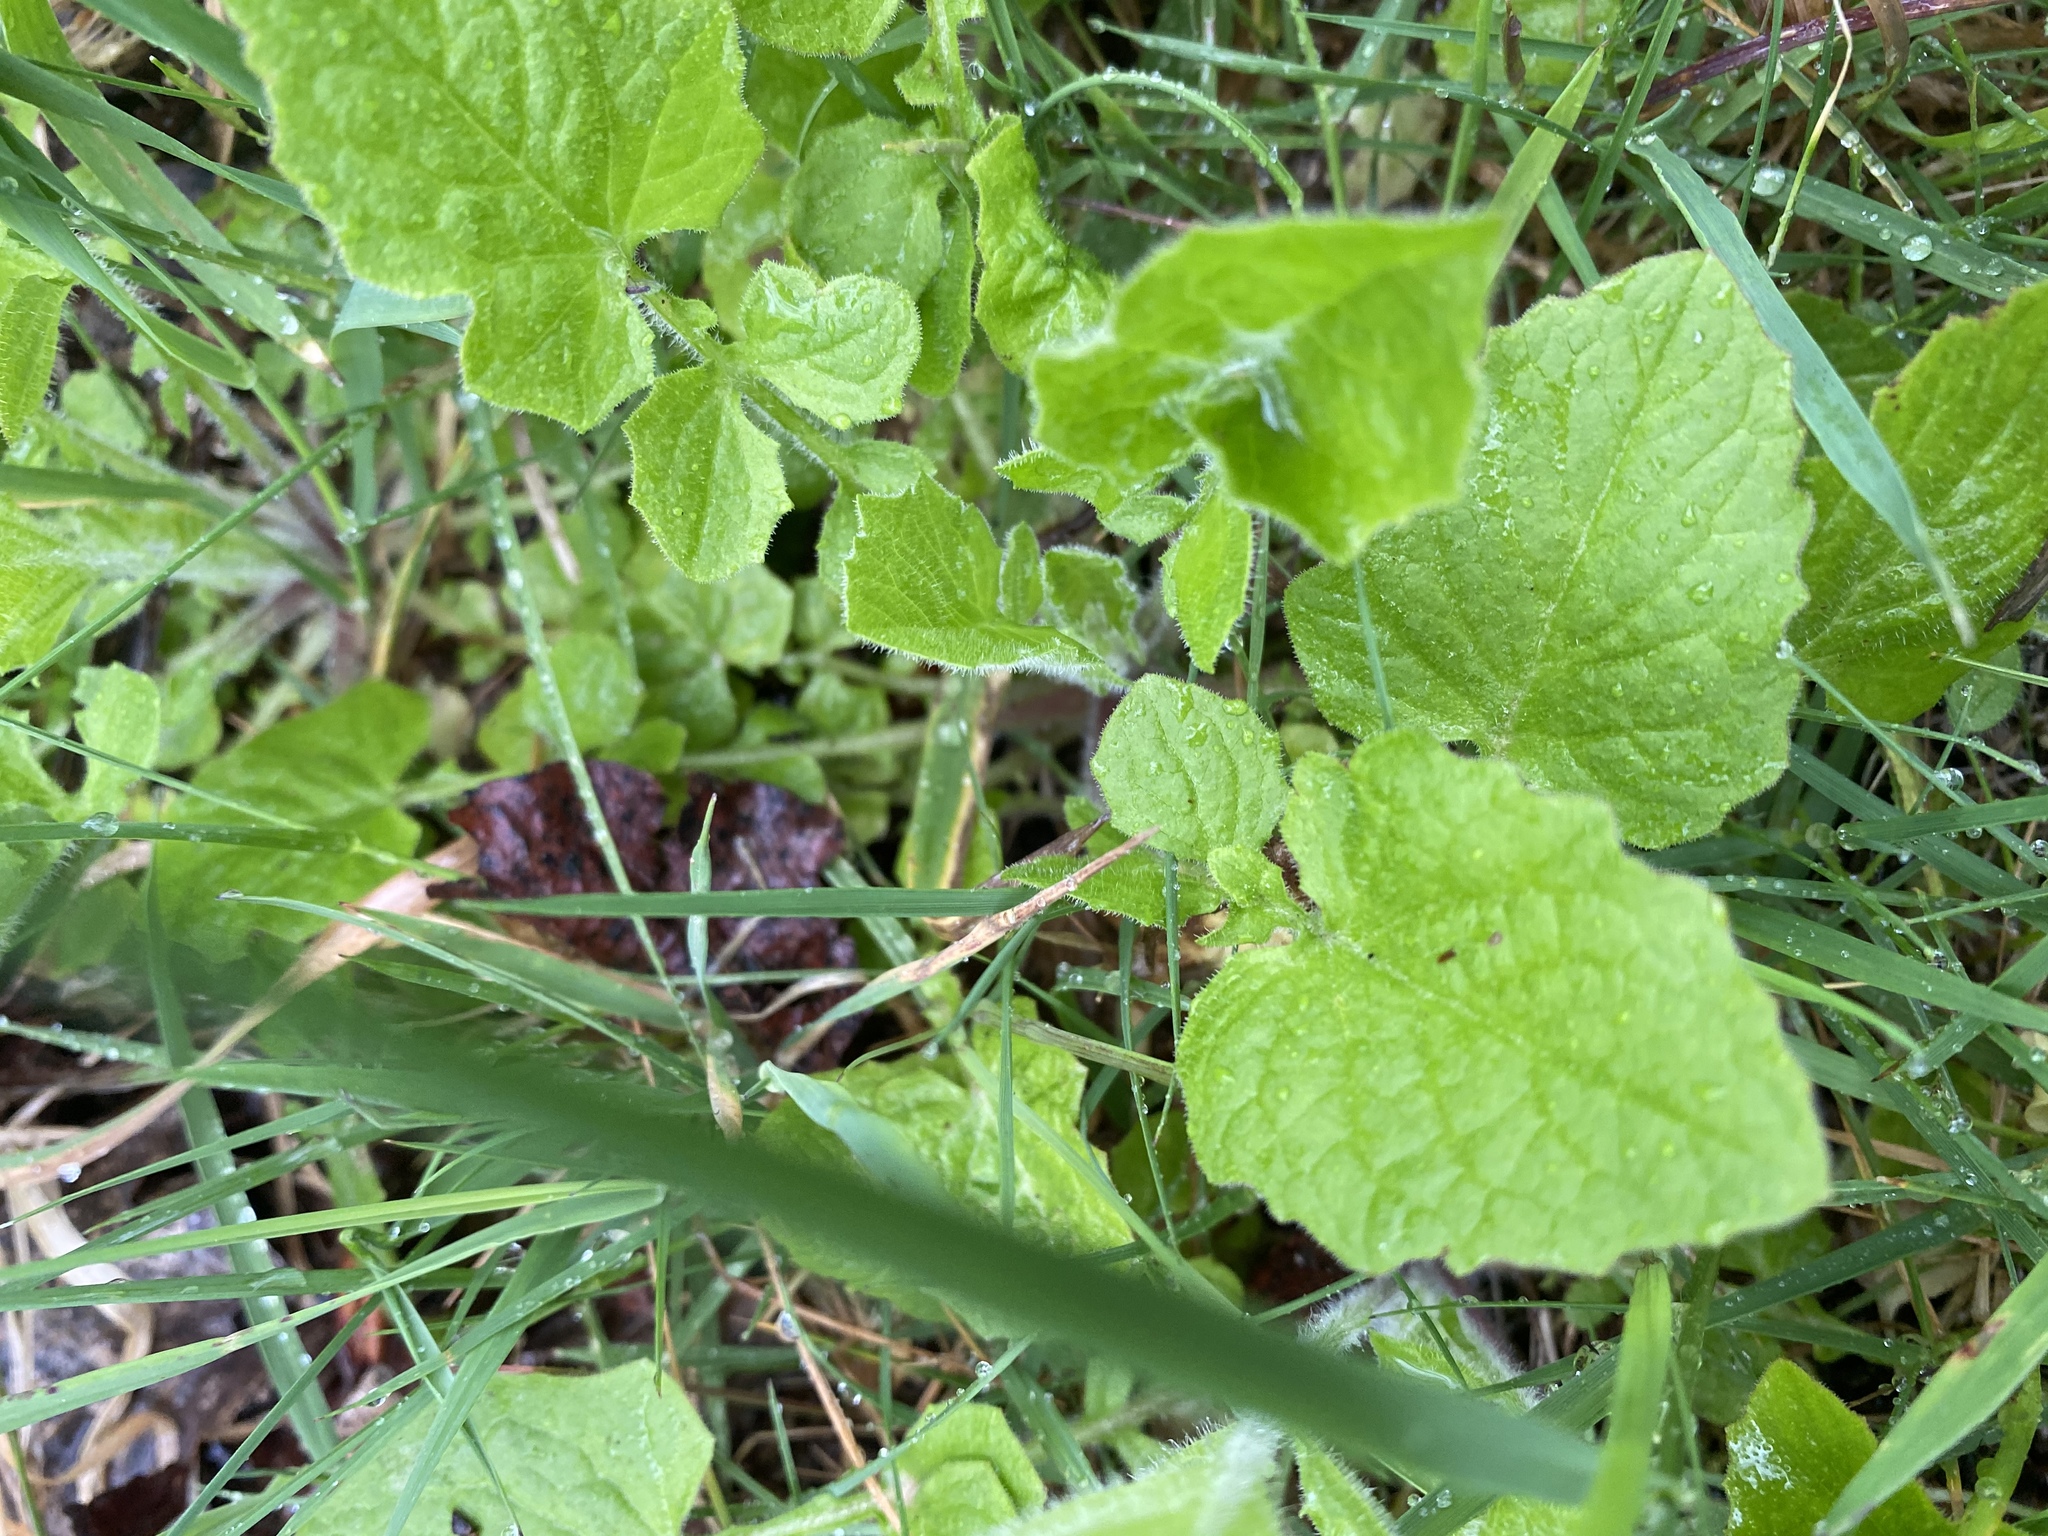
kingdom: Plantae
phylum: Tracheophyta
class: Magnoliopsida
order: Asterales
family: Asteraceae
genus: Lapsana
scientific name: Lapsana communis
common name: Nipplewort
